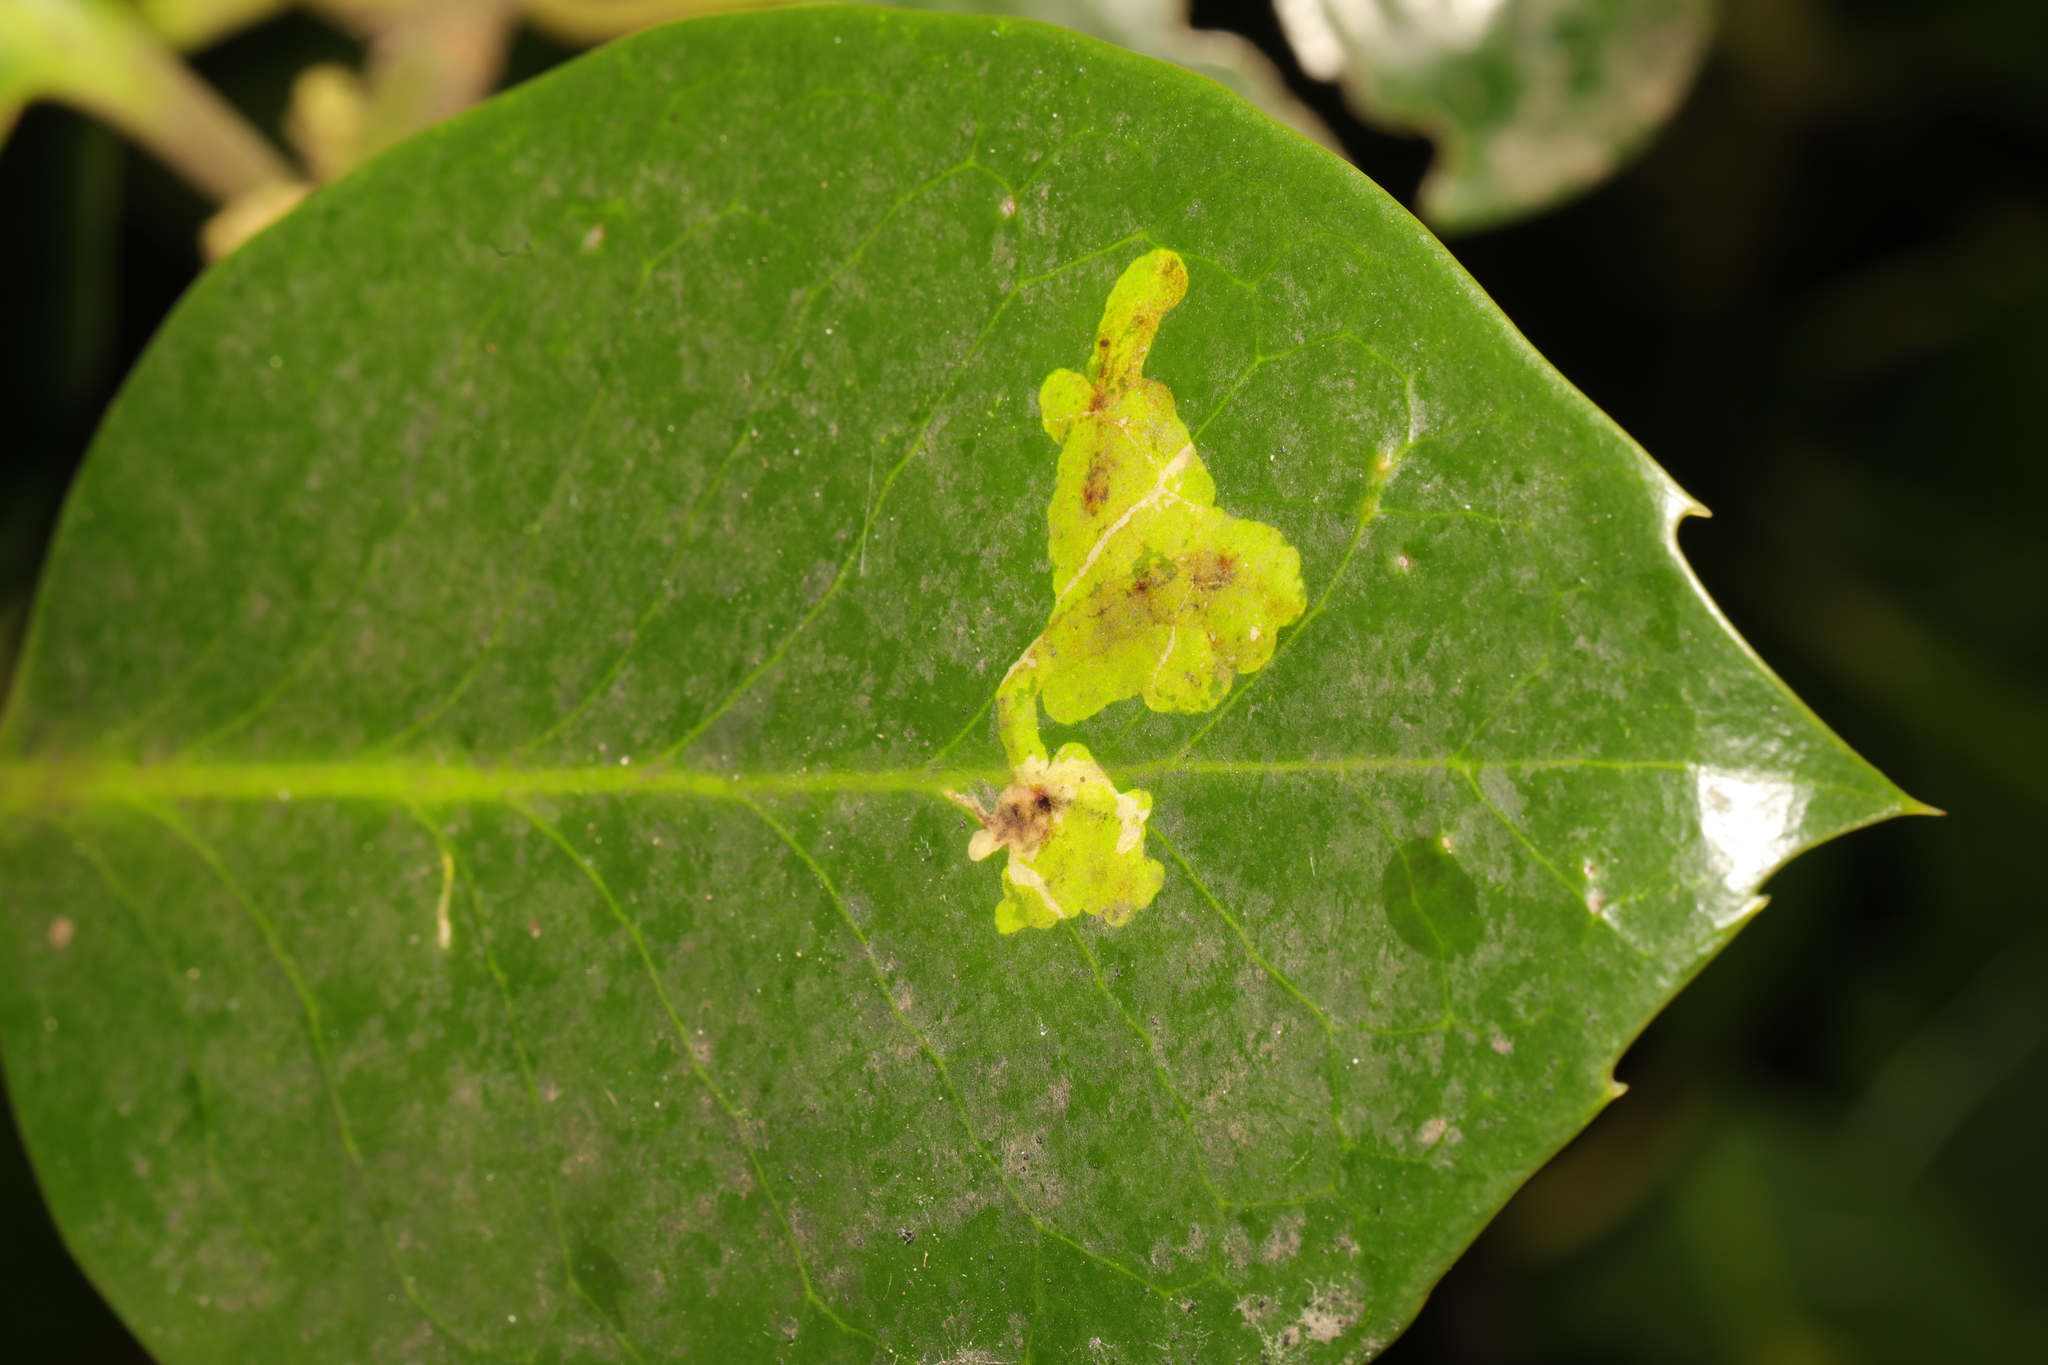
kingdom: Animalia
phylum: Arthropoda
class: Insecta
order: Diptera
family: Agromyzidae
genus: Phytomyza
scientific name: Phytomyza ilicis
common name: Holly leafminer
